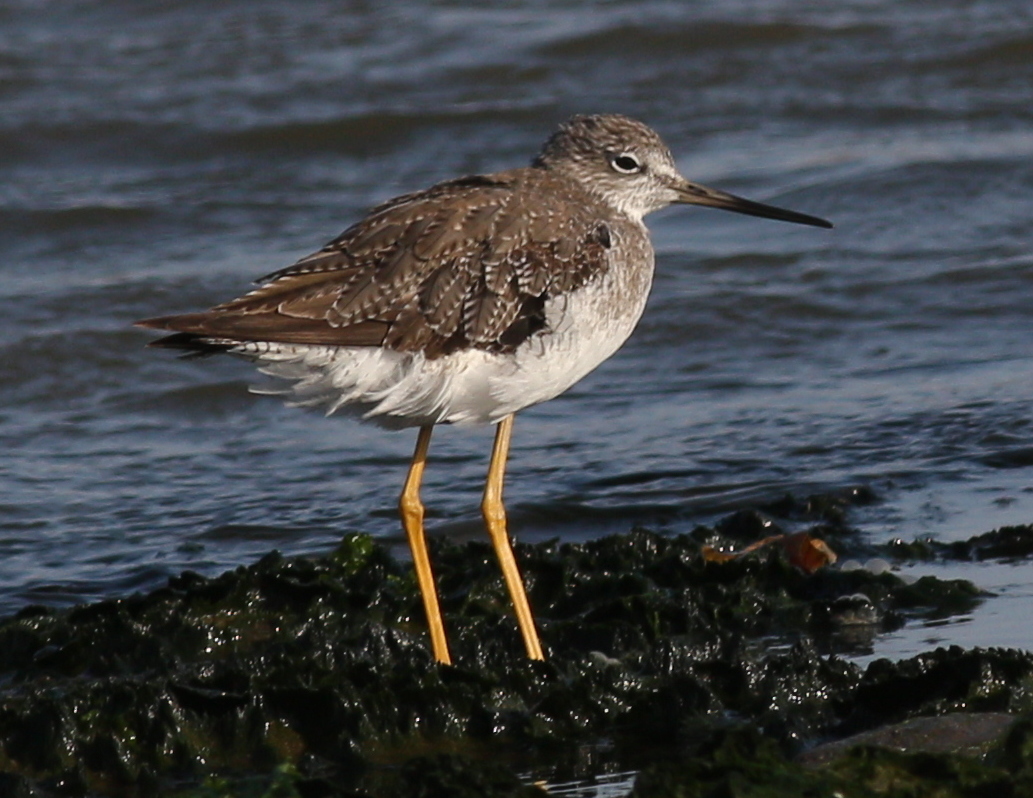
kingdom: Animalia
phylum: Chordata
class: Aves
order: Charadriiformes
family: Scolopacidae
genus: Tringa
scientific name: Tringa melanoleuca
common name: Greater yellowlegs
